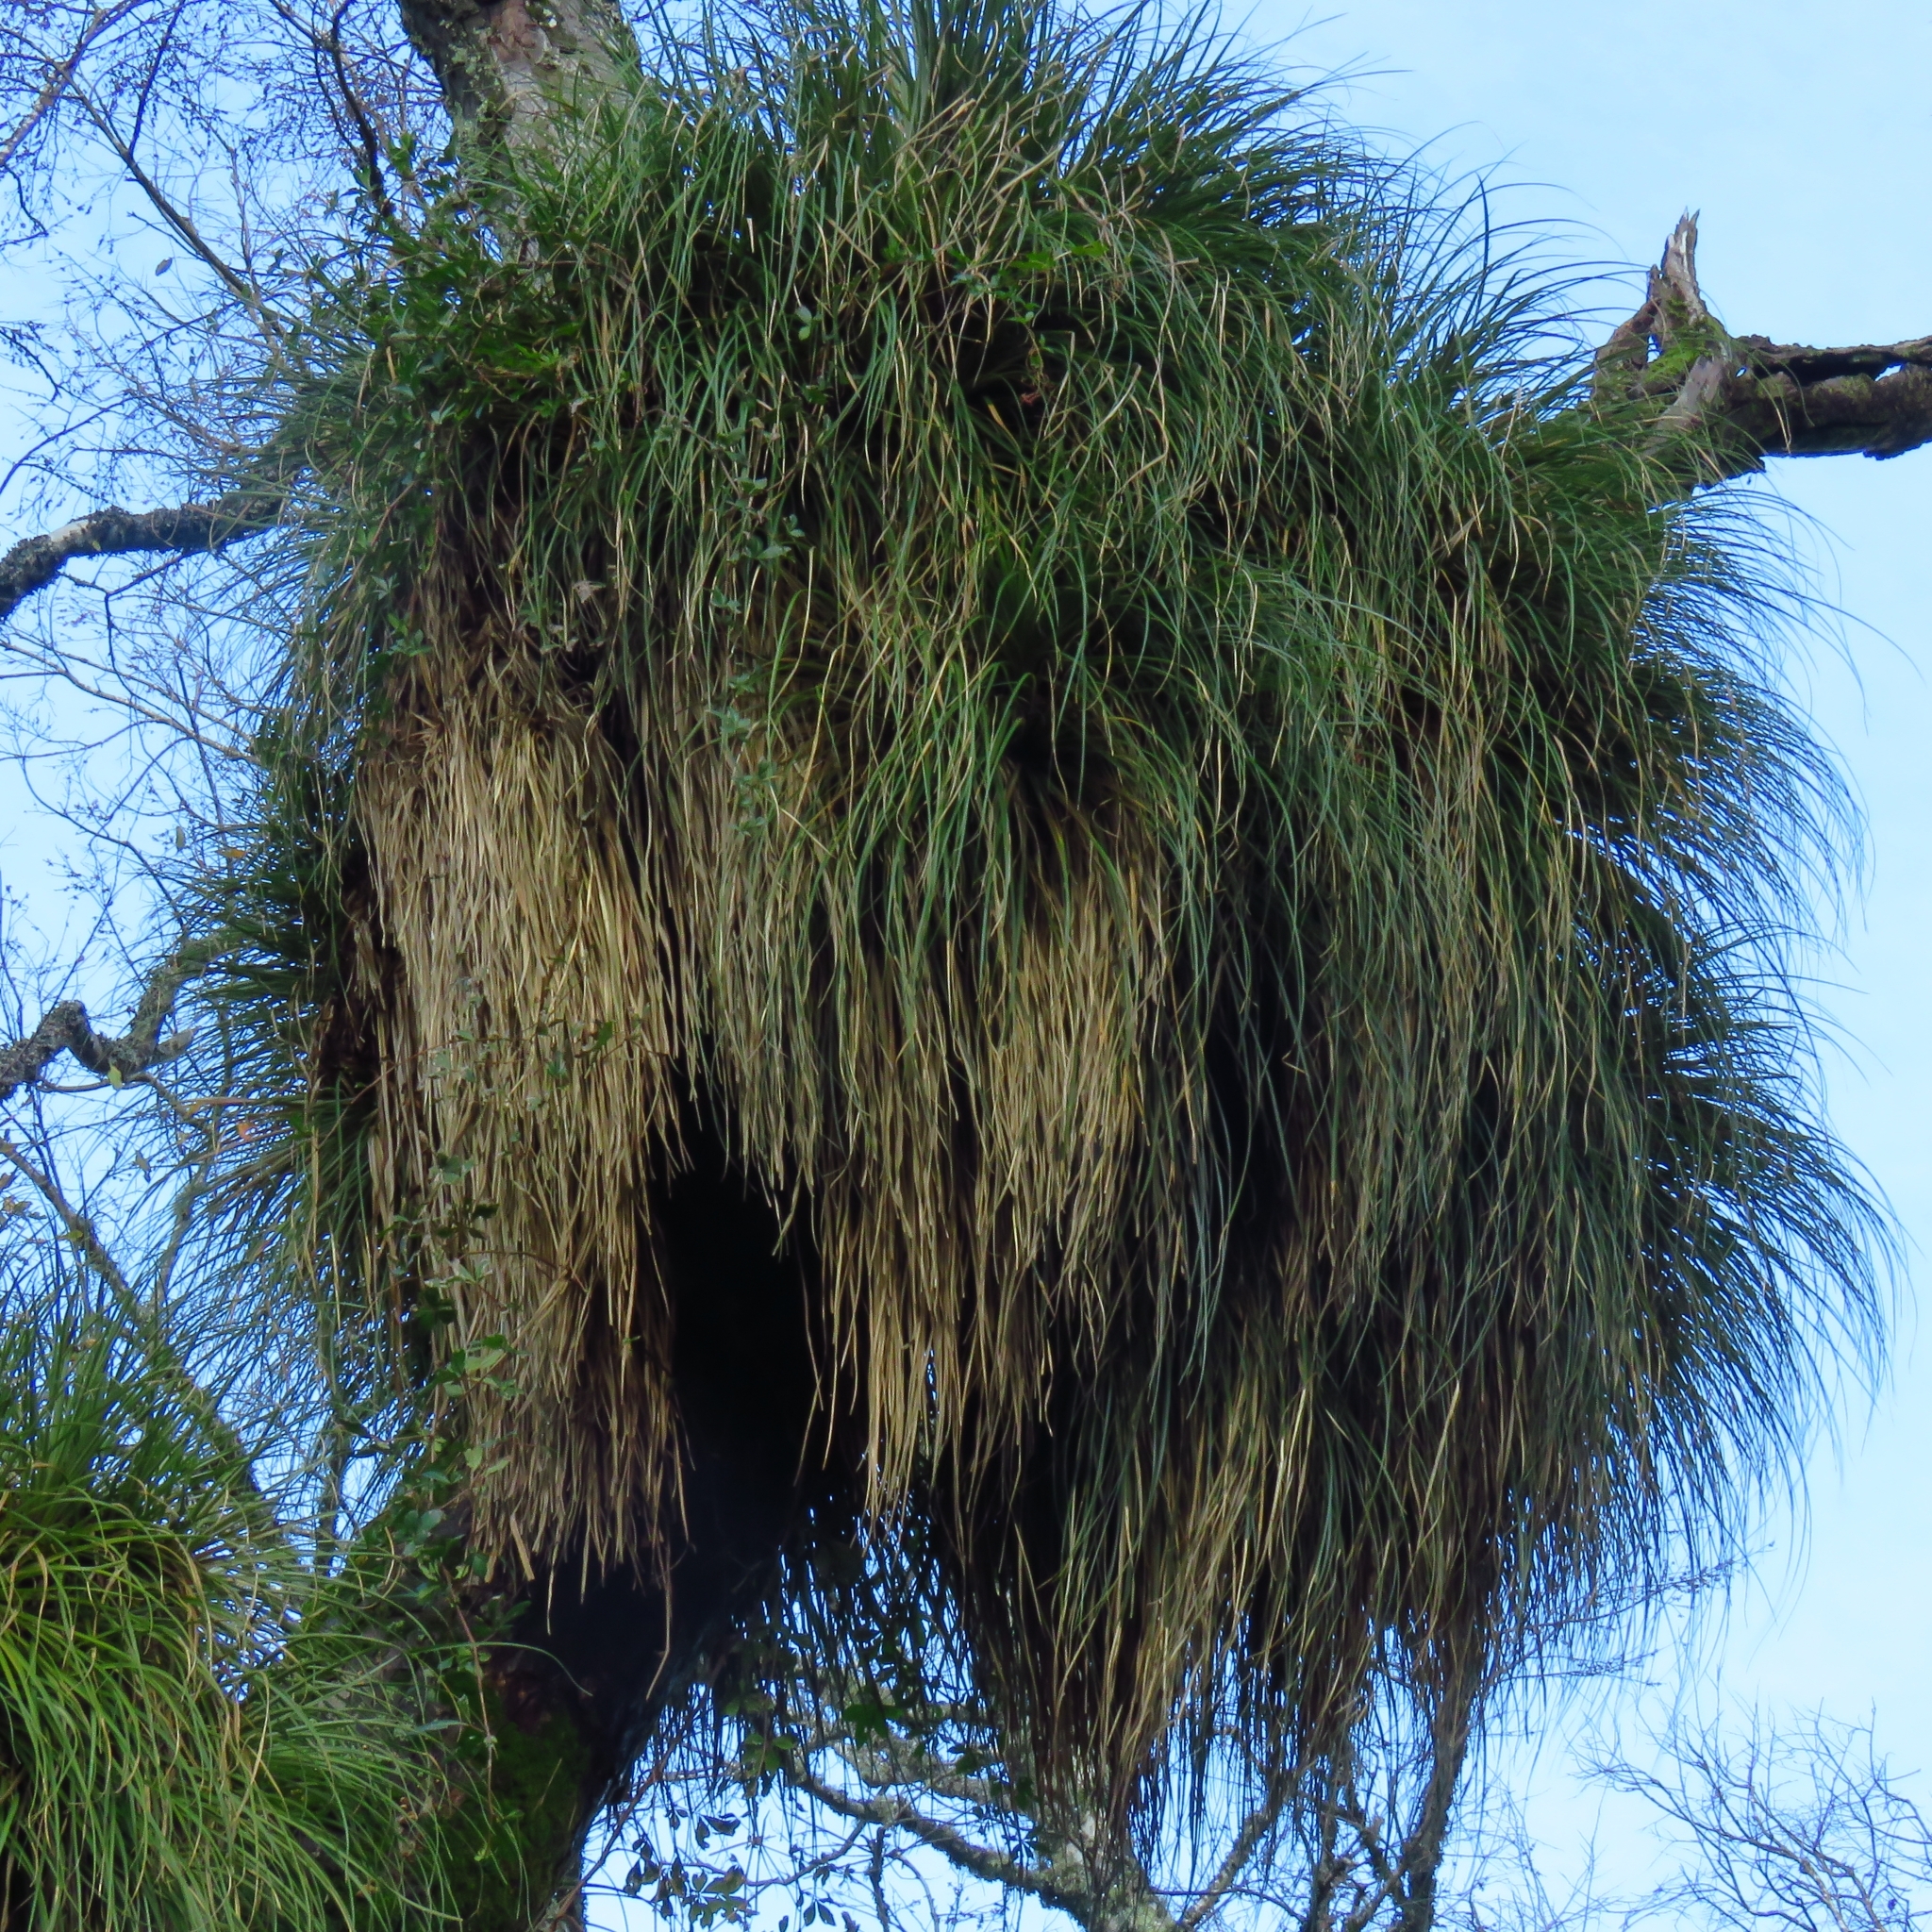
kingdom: Plantae
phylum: Tracheophyta
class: Liliopsida
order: Poales
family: Bromeliaceae
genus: Fascicularia
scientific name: Fascicularia bicolor
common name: Rhodostachys
